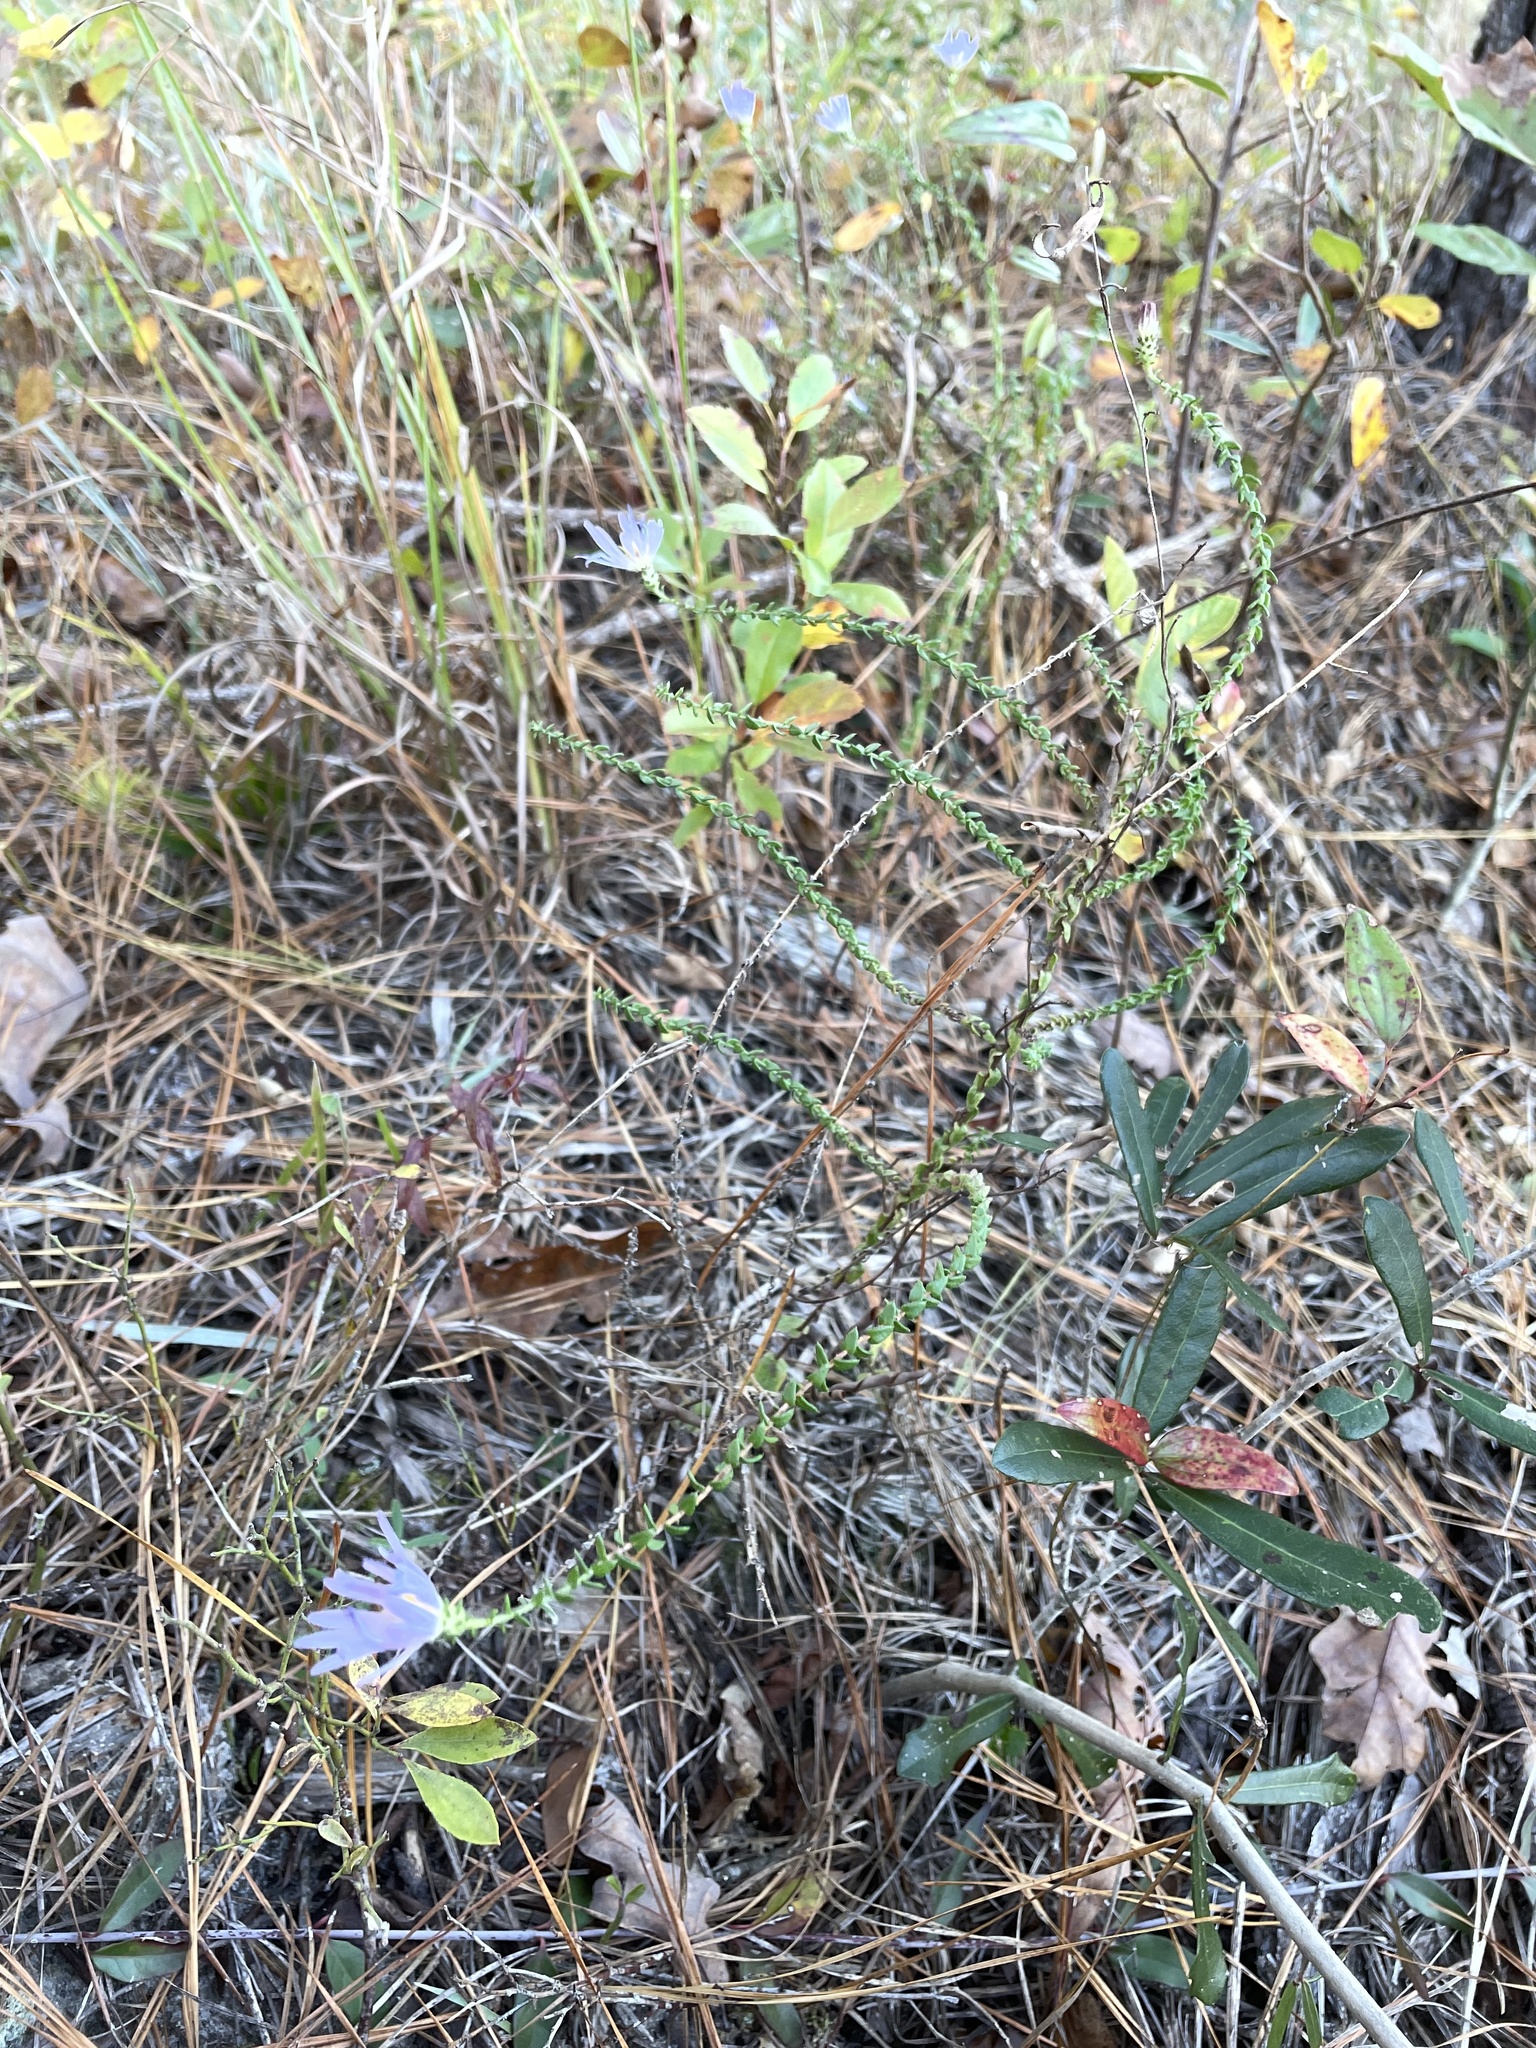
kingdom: Plantae
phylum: Tracheophyta
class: Magnoliopsida
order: Asterales
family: Asteraceae
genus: Symphyotrichum
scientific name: Symphyotrichum walteri
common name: Walter's aster
